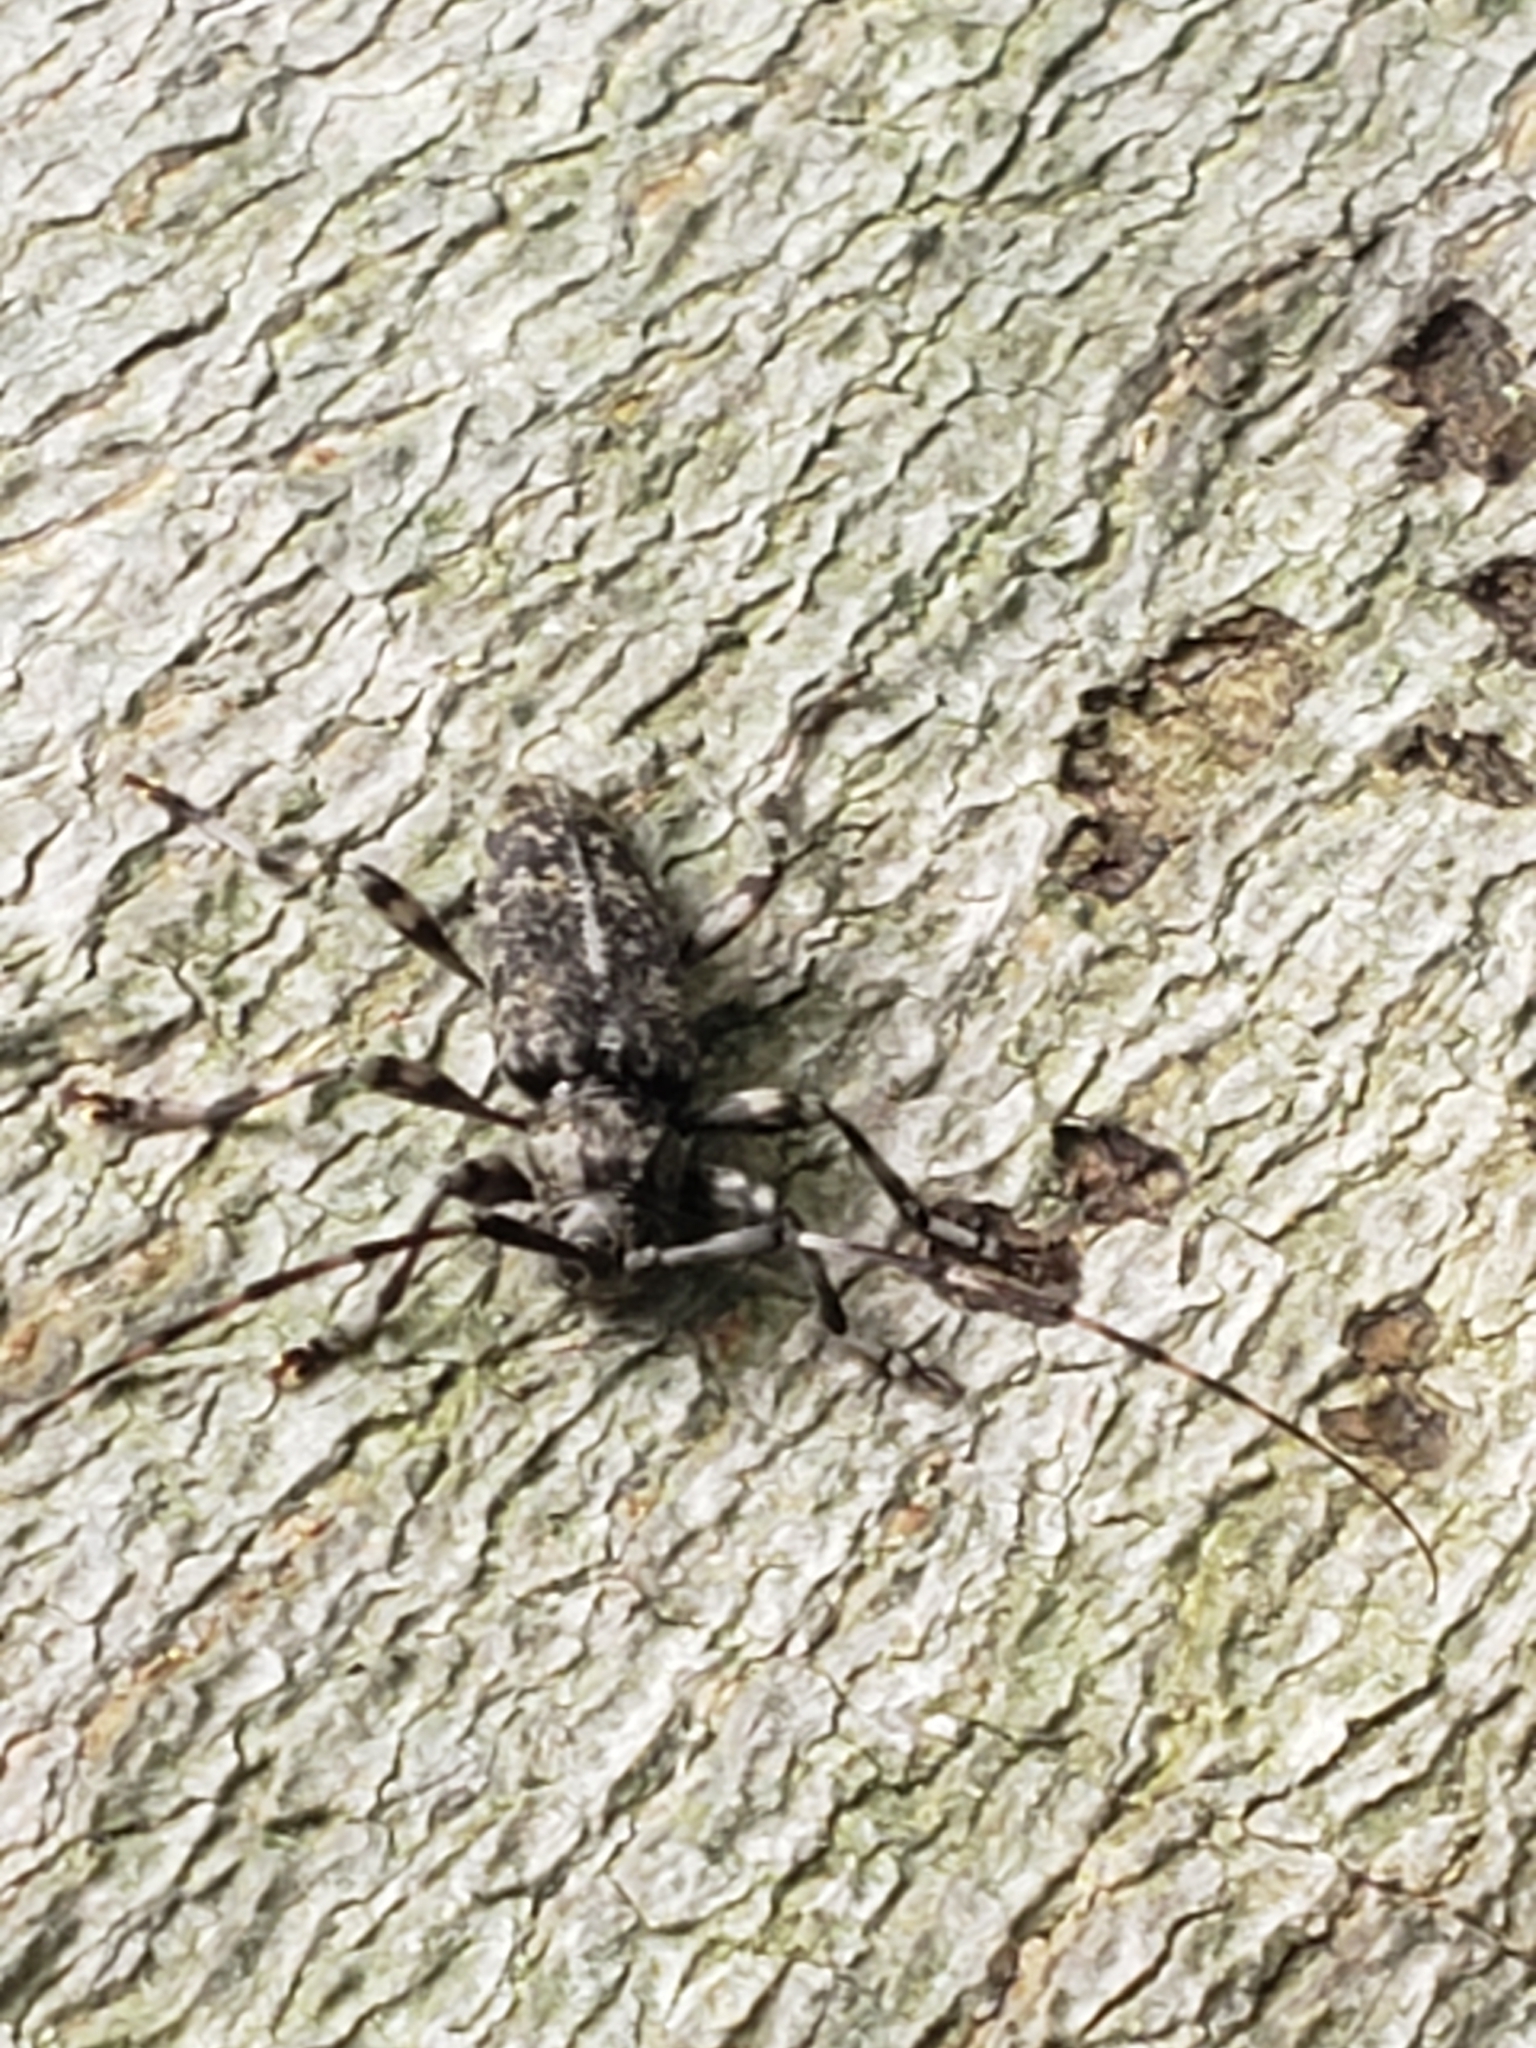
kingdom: Animalia
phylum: Arthropoda
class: Insecta
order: Coleoptera
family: Cerambycidae
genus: Graphisurus
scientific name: Graphisurus fasciatus
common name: Banded graphisurus
